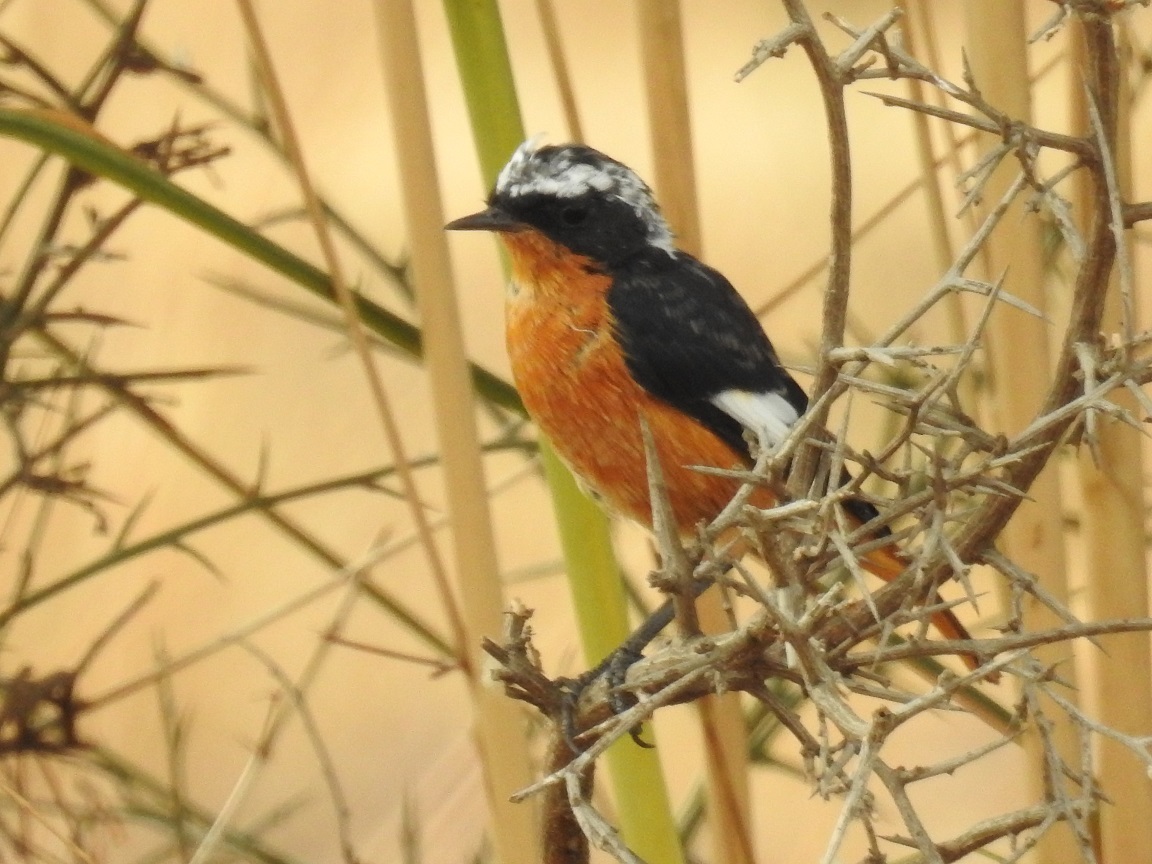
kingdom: Animalia
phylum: Chordata
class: Aves
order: Passeriformes
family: Muscicapidae
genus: Phoenicurus
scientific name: Phoenicurus moussieri
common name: Moussier's redstart
